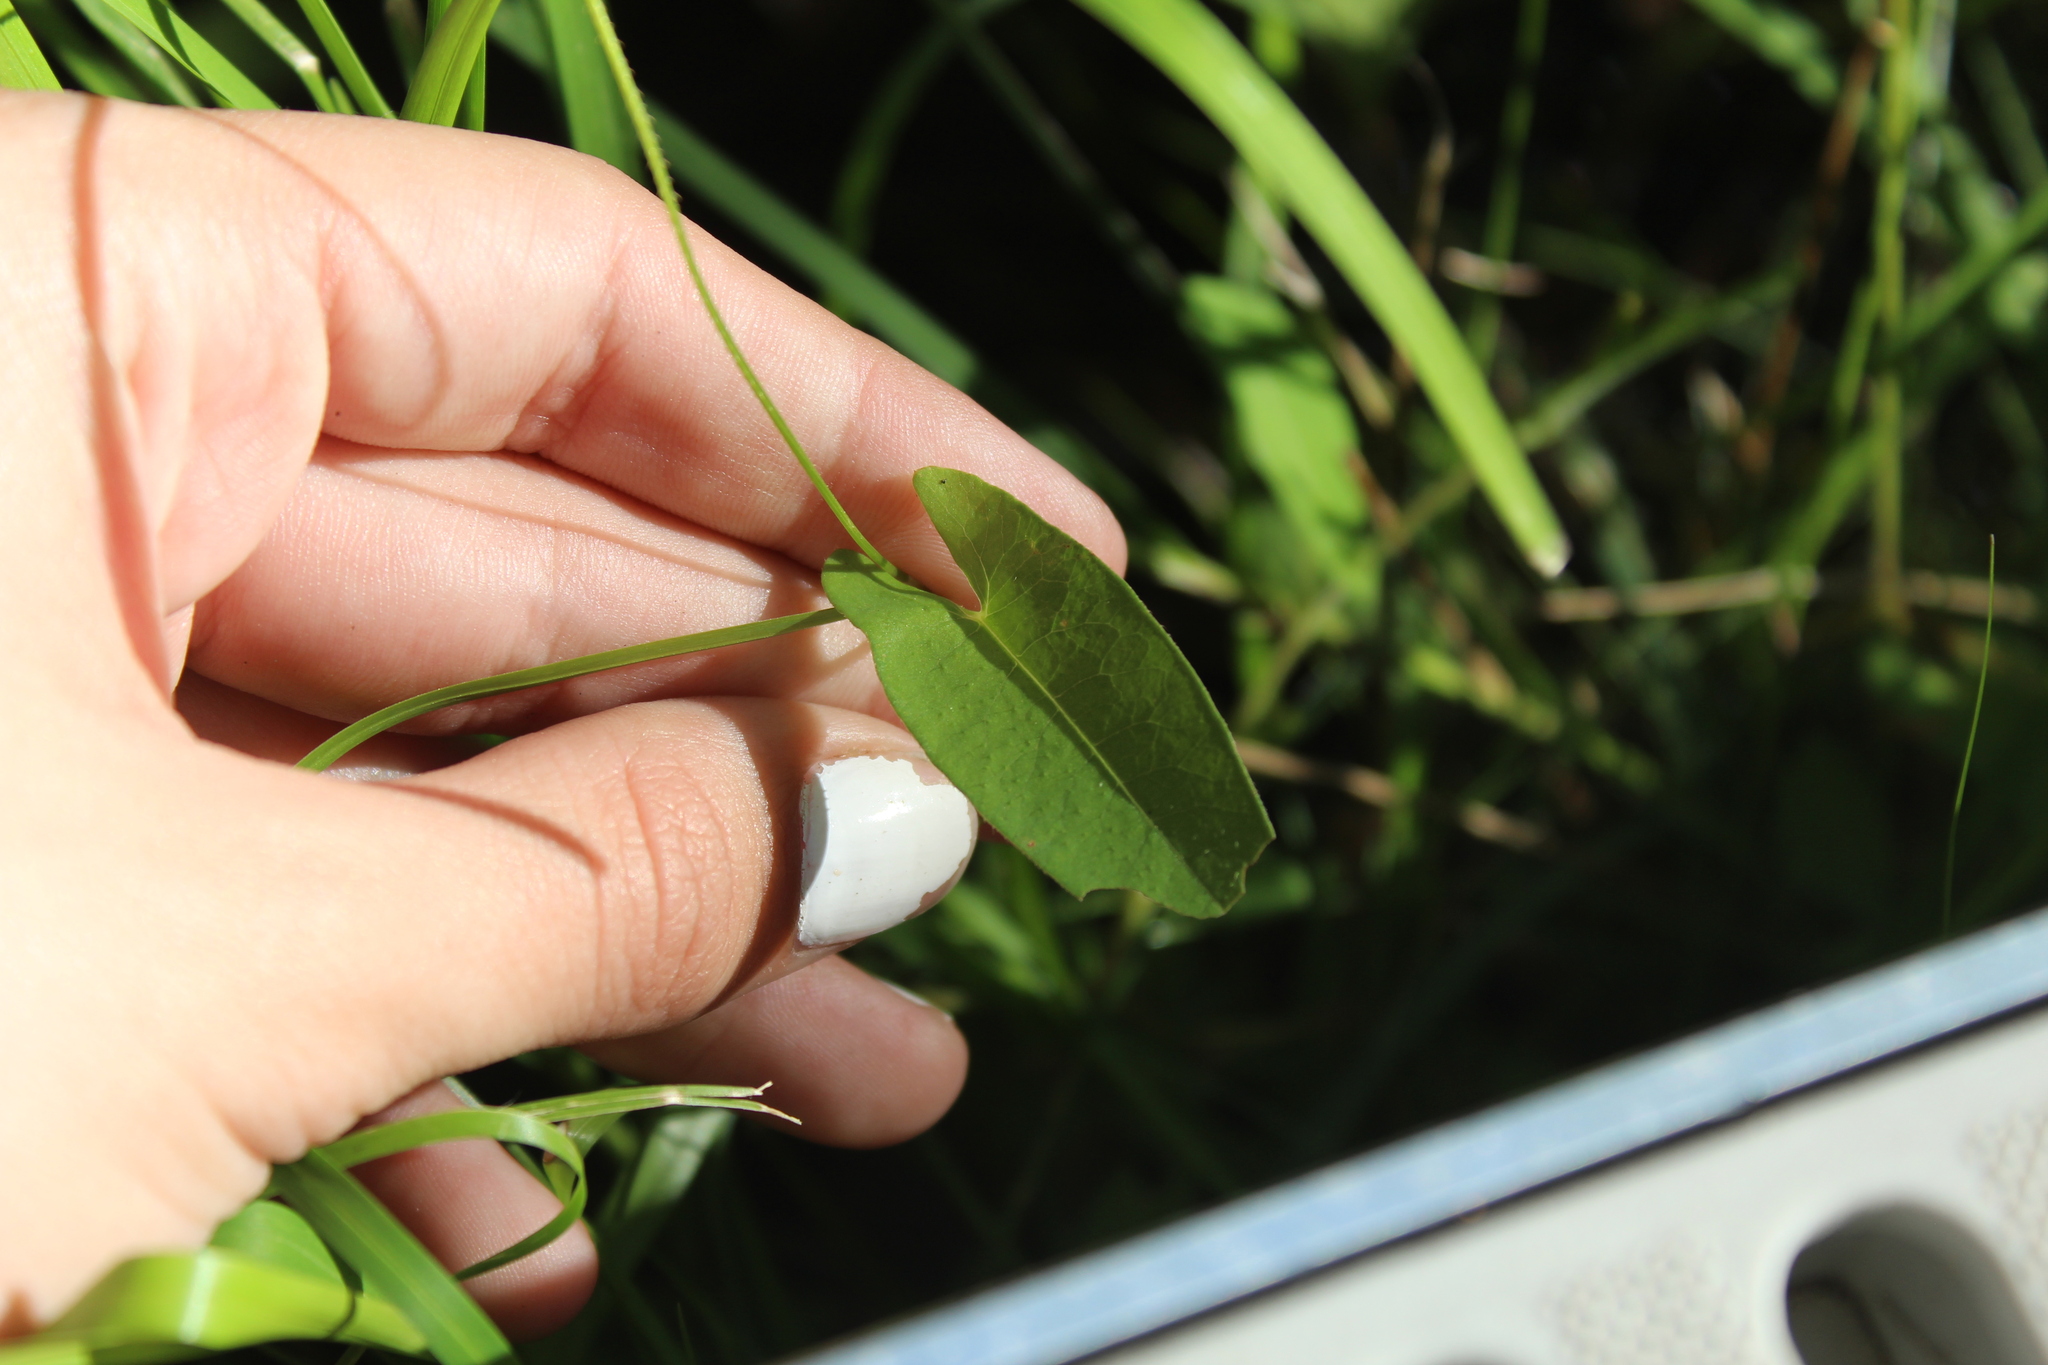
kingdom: Plantae
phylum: Tracheophyta
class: Magnoliopsida
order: Caryophyllales
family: Polygonaceae
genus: Persicaria
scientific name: Persicaria sagittata
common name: American tearthumb
